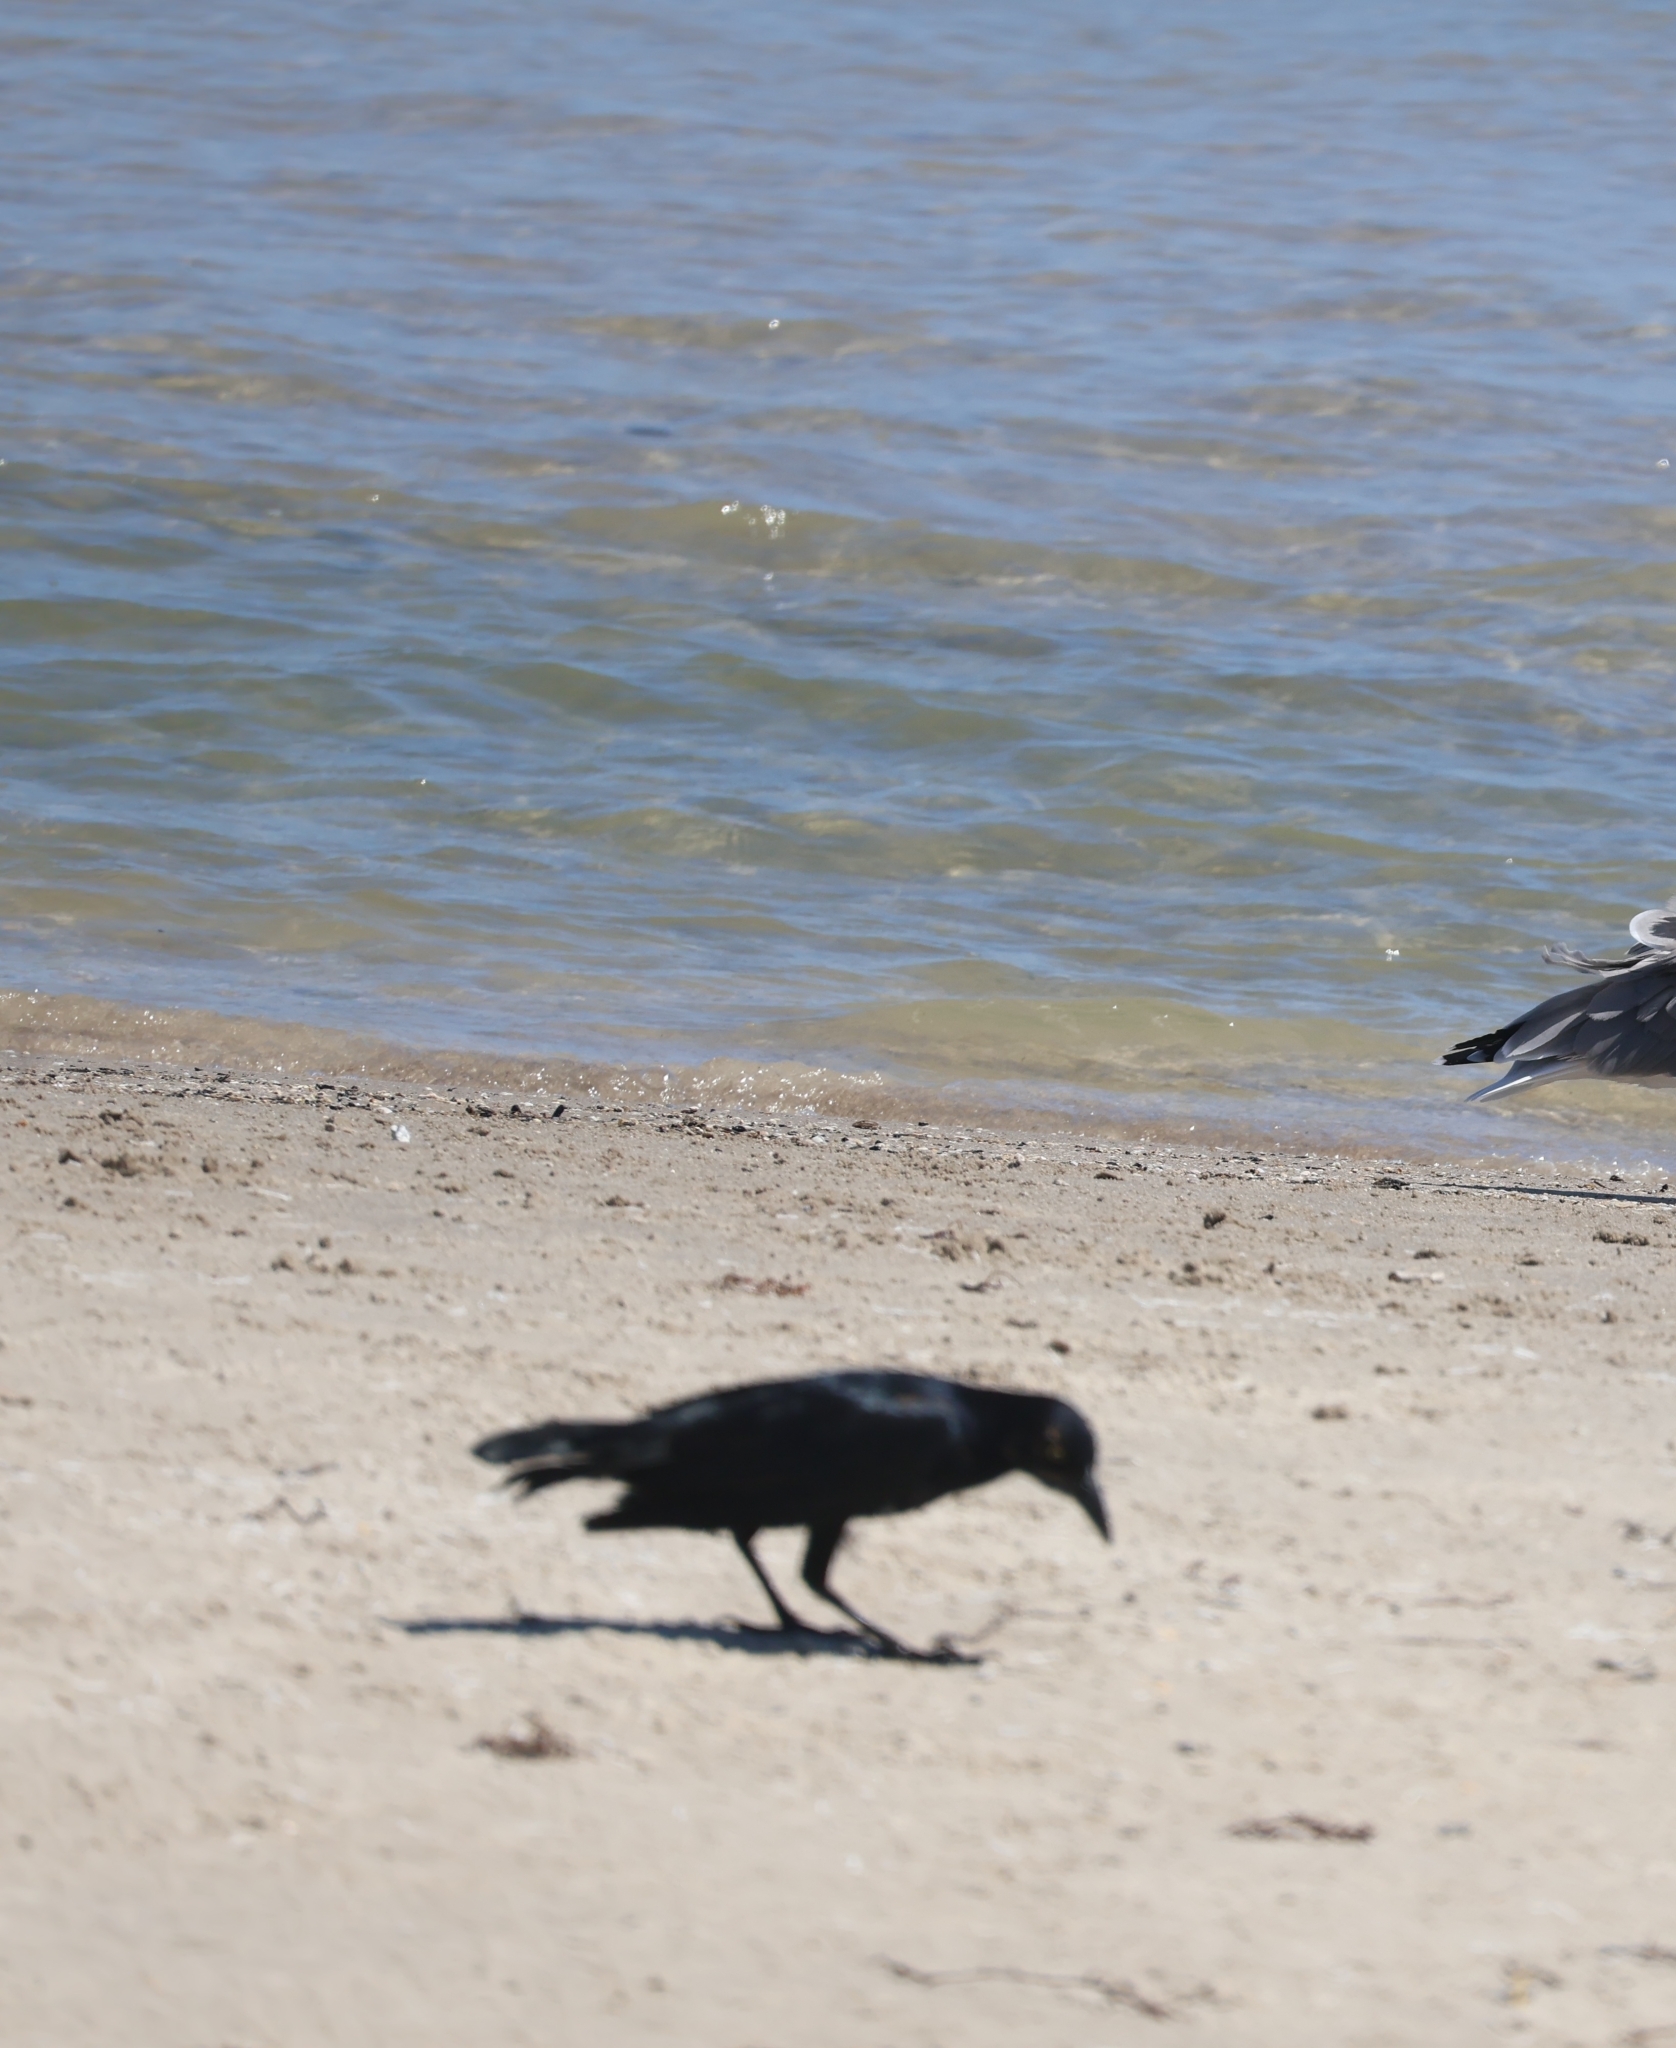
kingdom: Animalia
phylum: Chordata
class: Aves
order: Passeriformes
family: Icteridae
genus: Quiscalus
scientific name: Quiscalus mexicanus
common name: Great-tailed grackle
